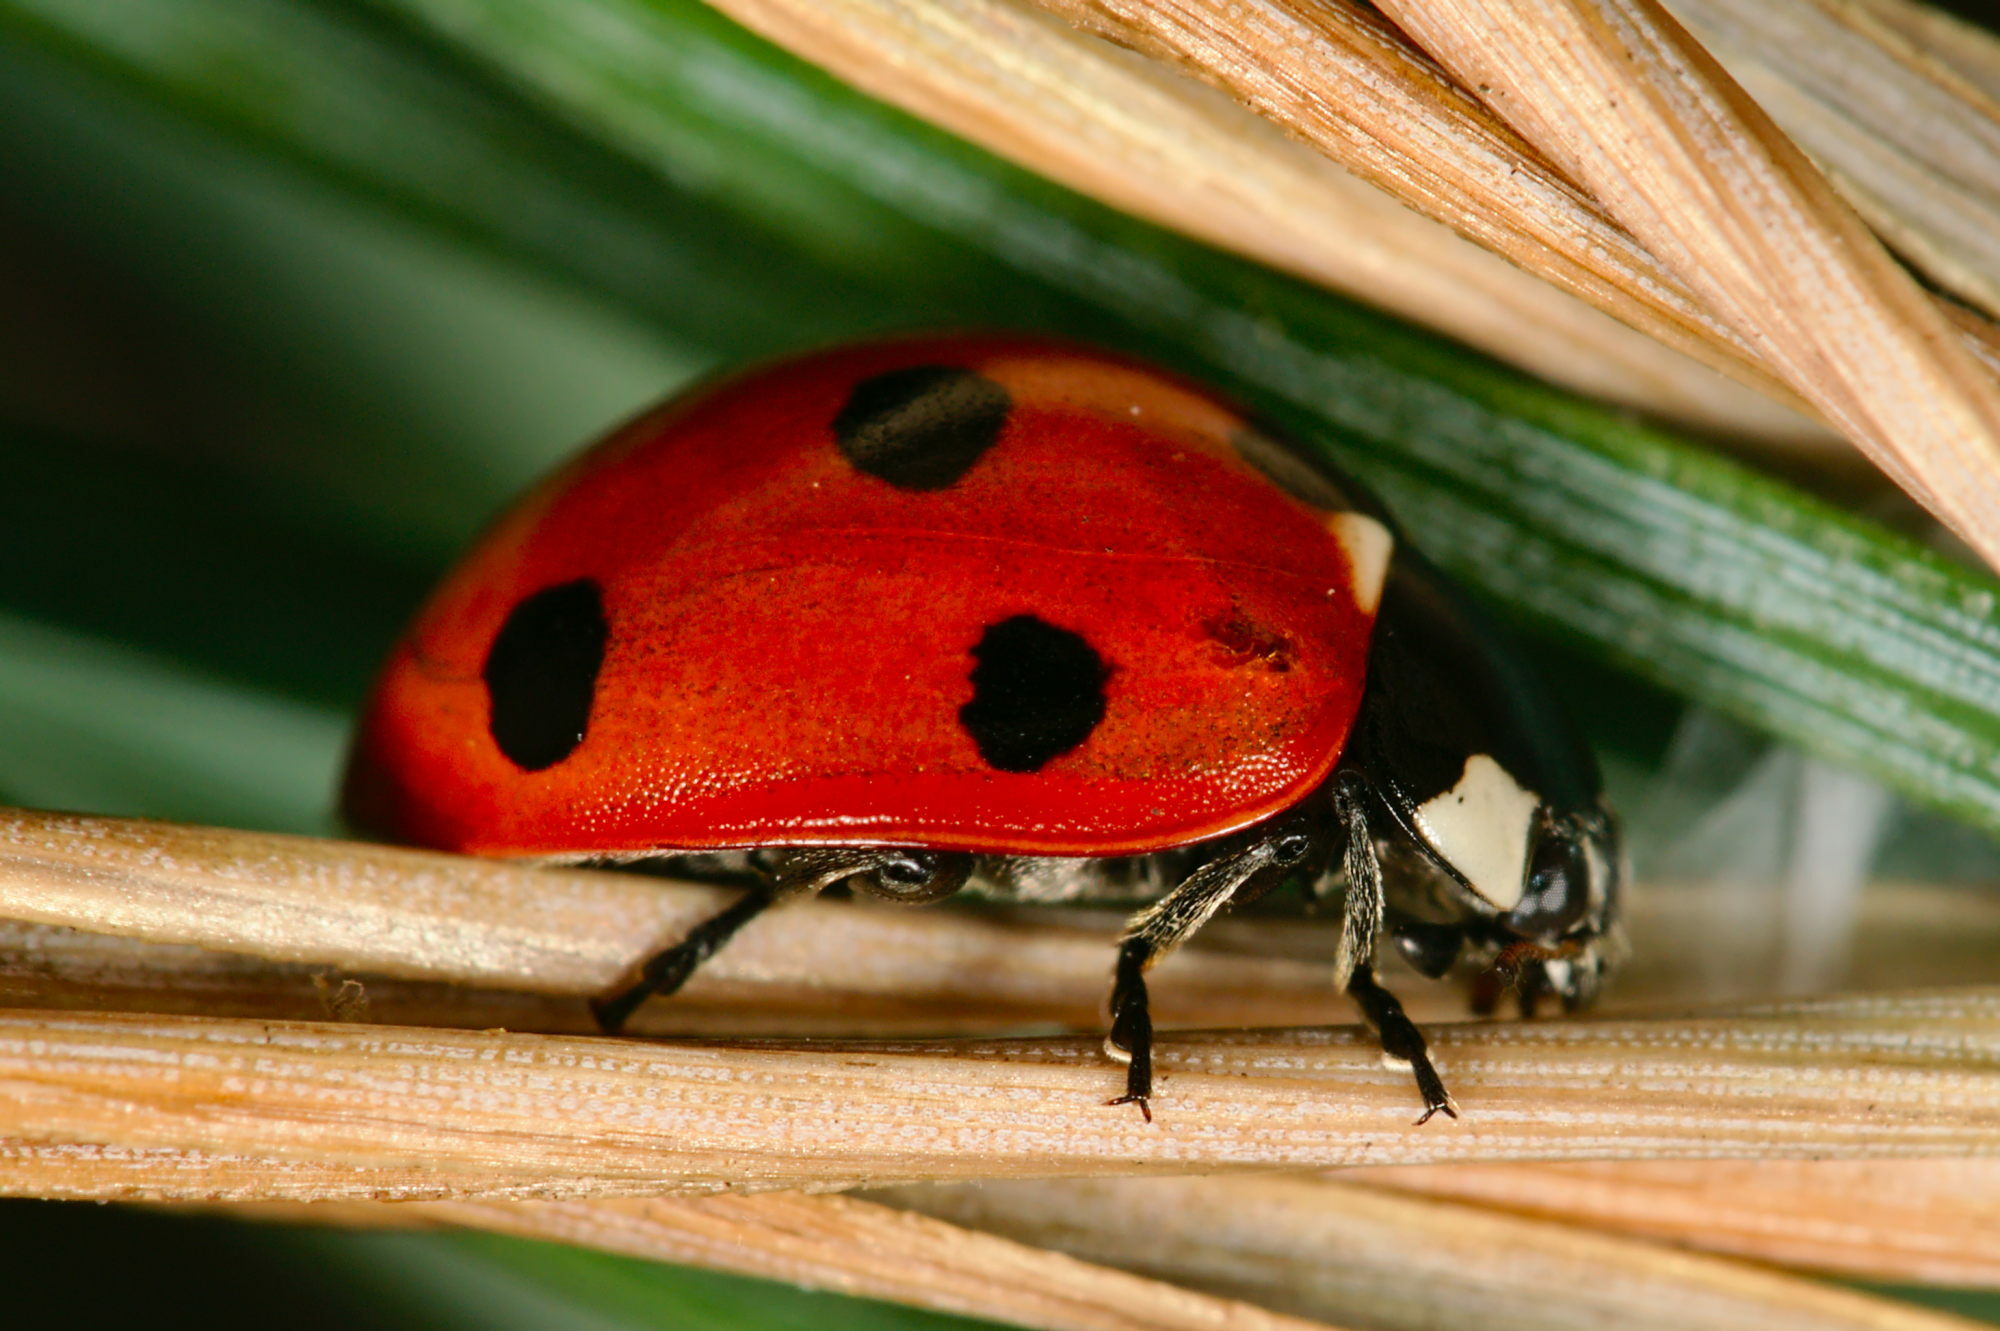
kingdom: Animalia
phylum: Arthropoda
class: Insecta
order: Coleoptera
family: Coccinellidae
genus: Coccinella
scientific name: Coccinella septempunctata
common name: Sevenspotted lady beetle
